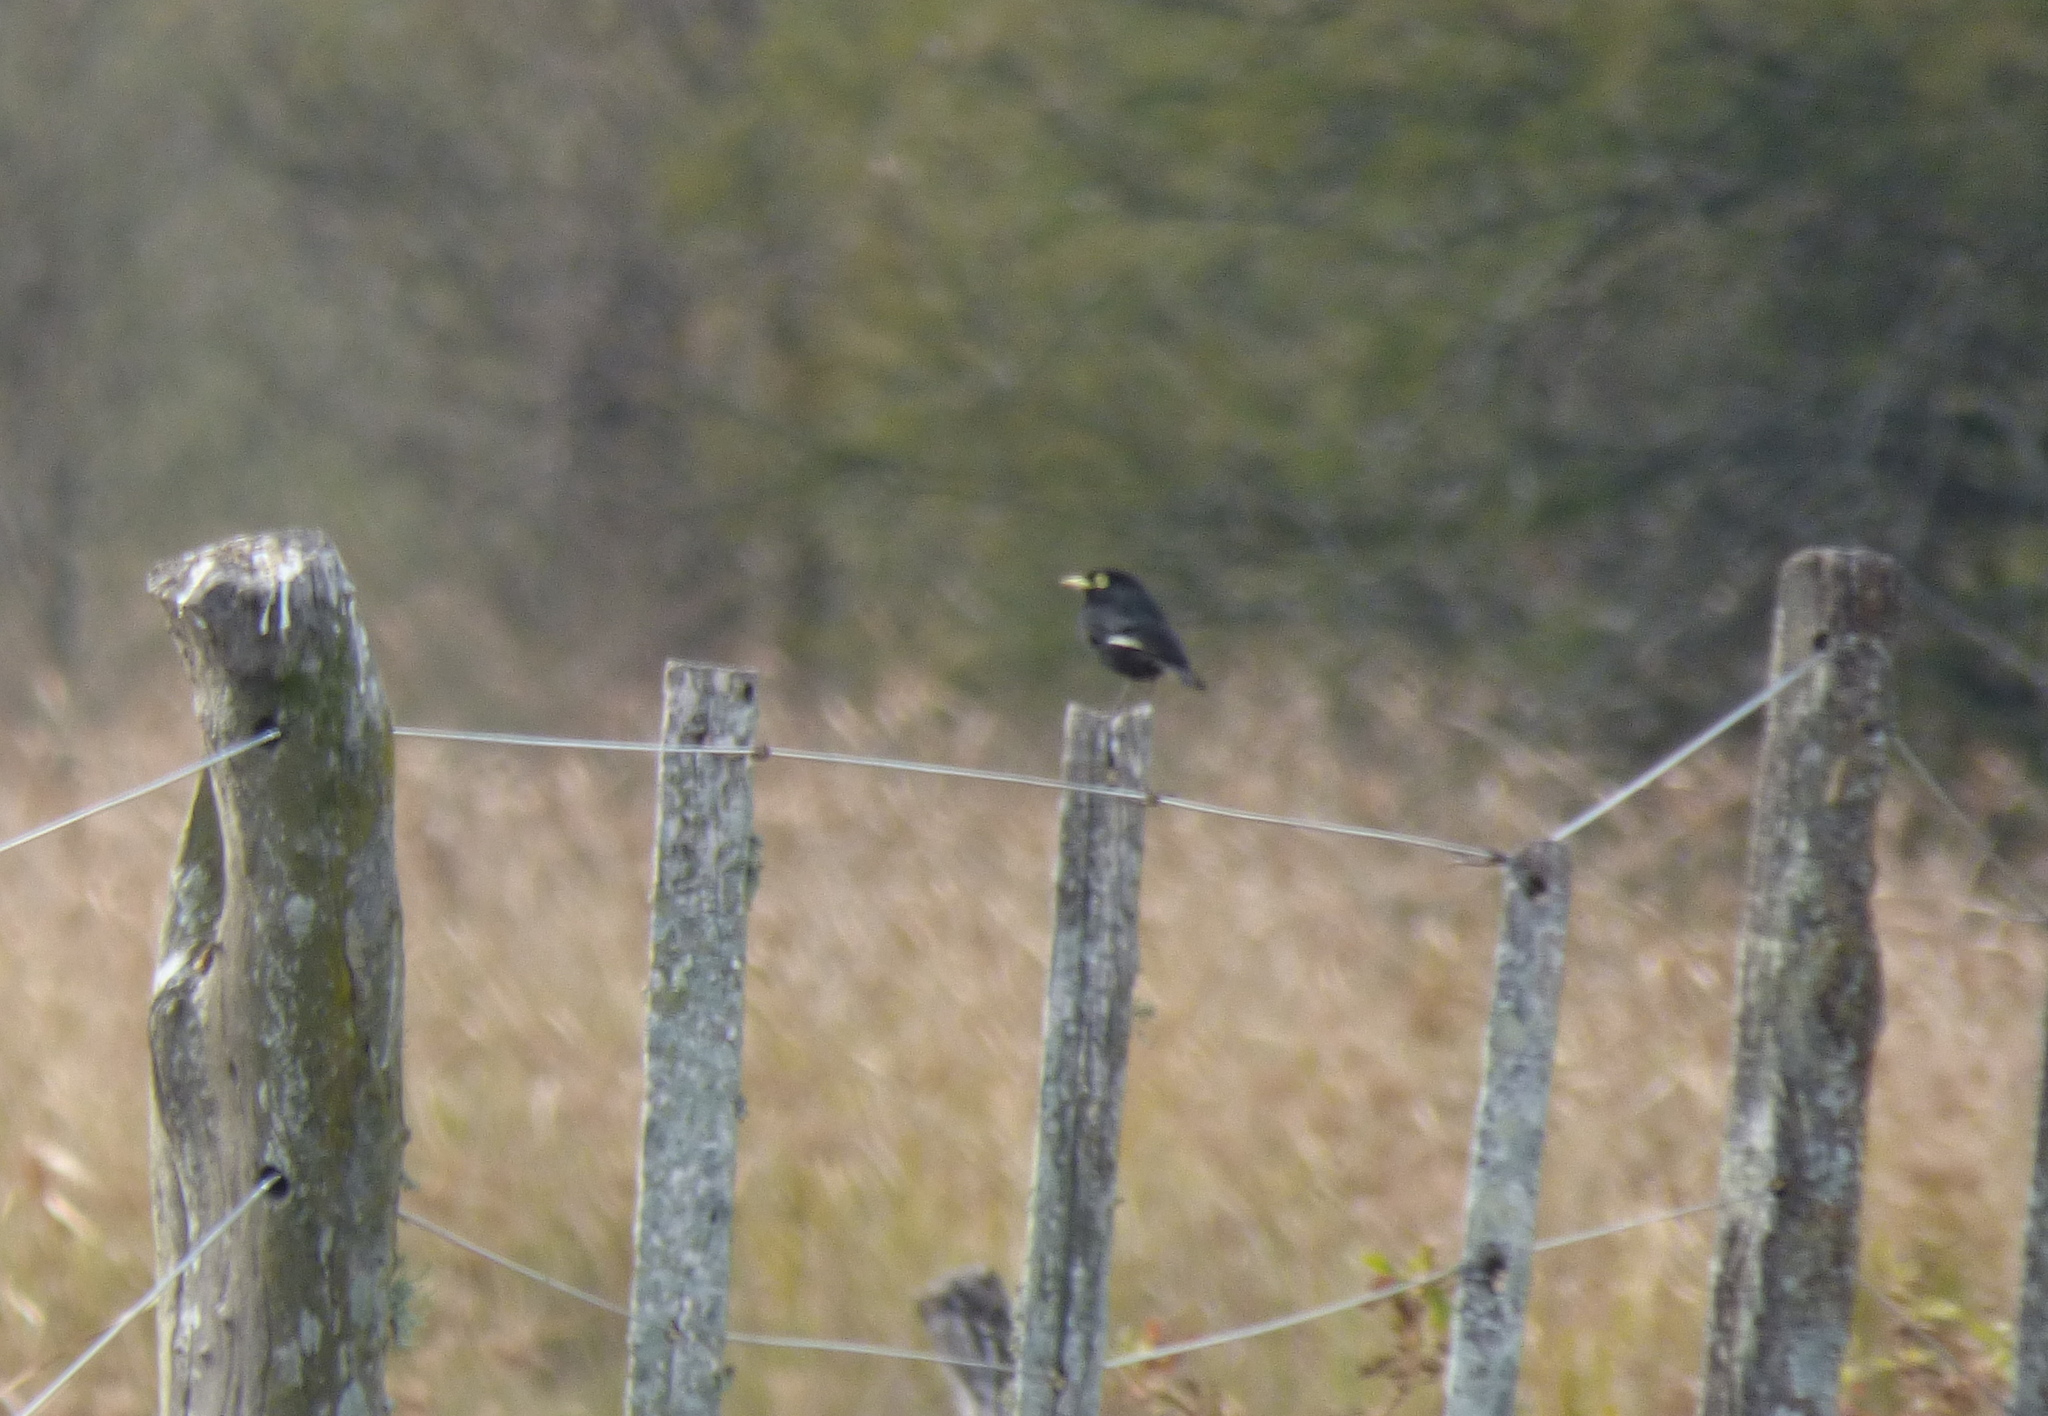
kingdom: Animalia
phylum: Chordata
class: Aves
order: Passeriformes
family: Tyrannidae
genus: Hymenops
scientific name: Hymenops perspicillatus
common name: Spectacled tyrant
